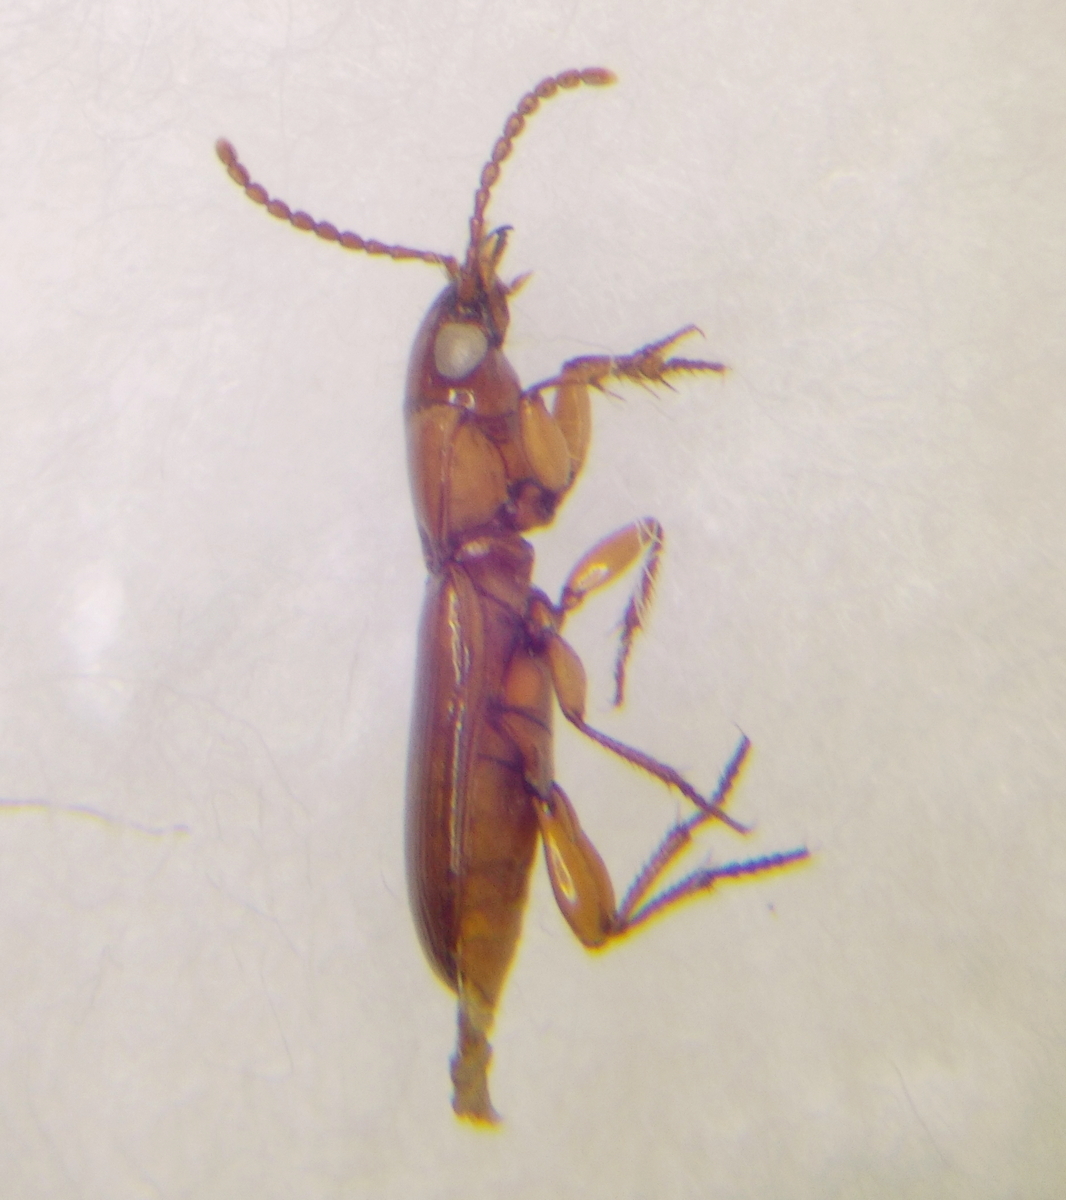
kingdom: Animalia
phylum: Arthropoda
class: Insecta
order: Coleoptera
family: Carabidae
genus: Sirdenus
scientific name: Sirdenus grayii
